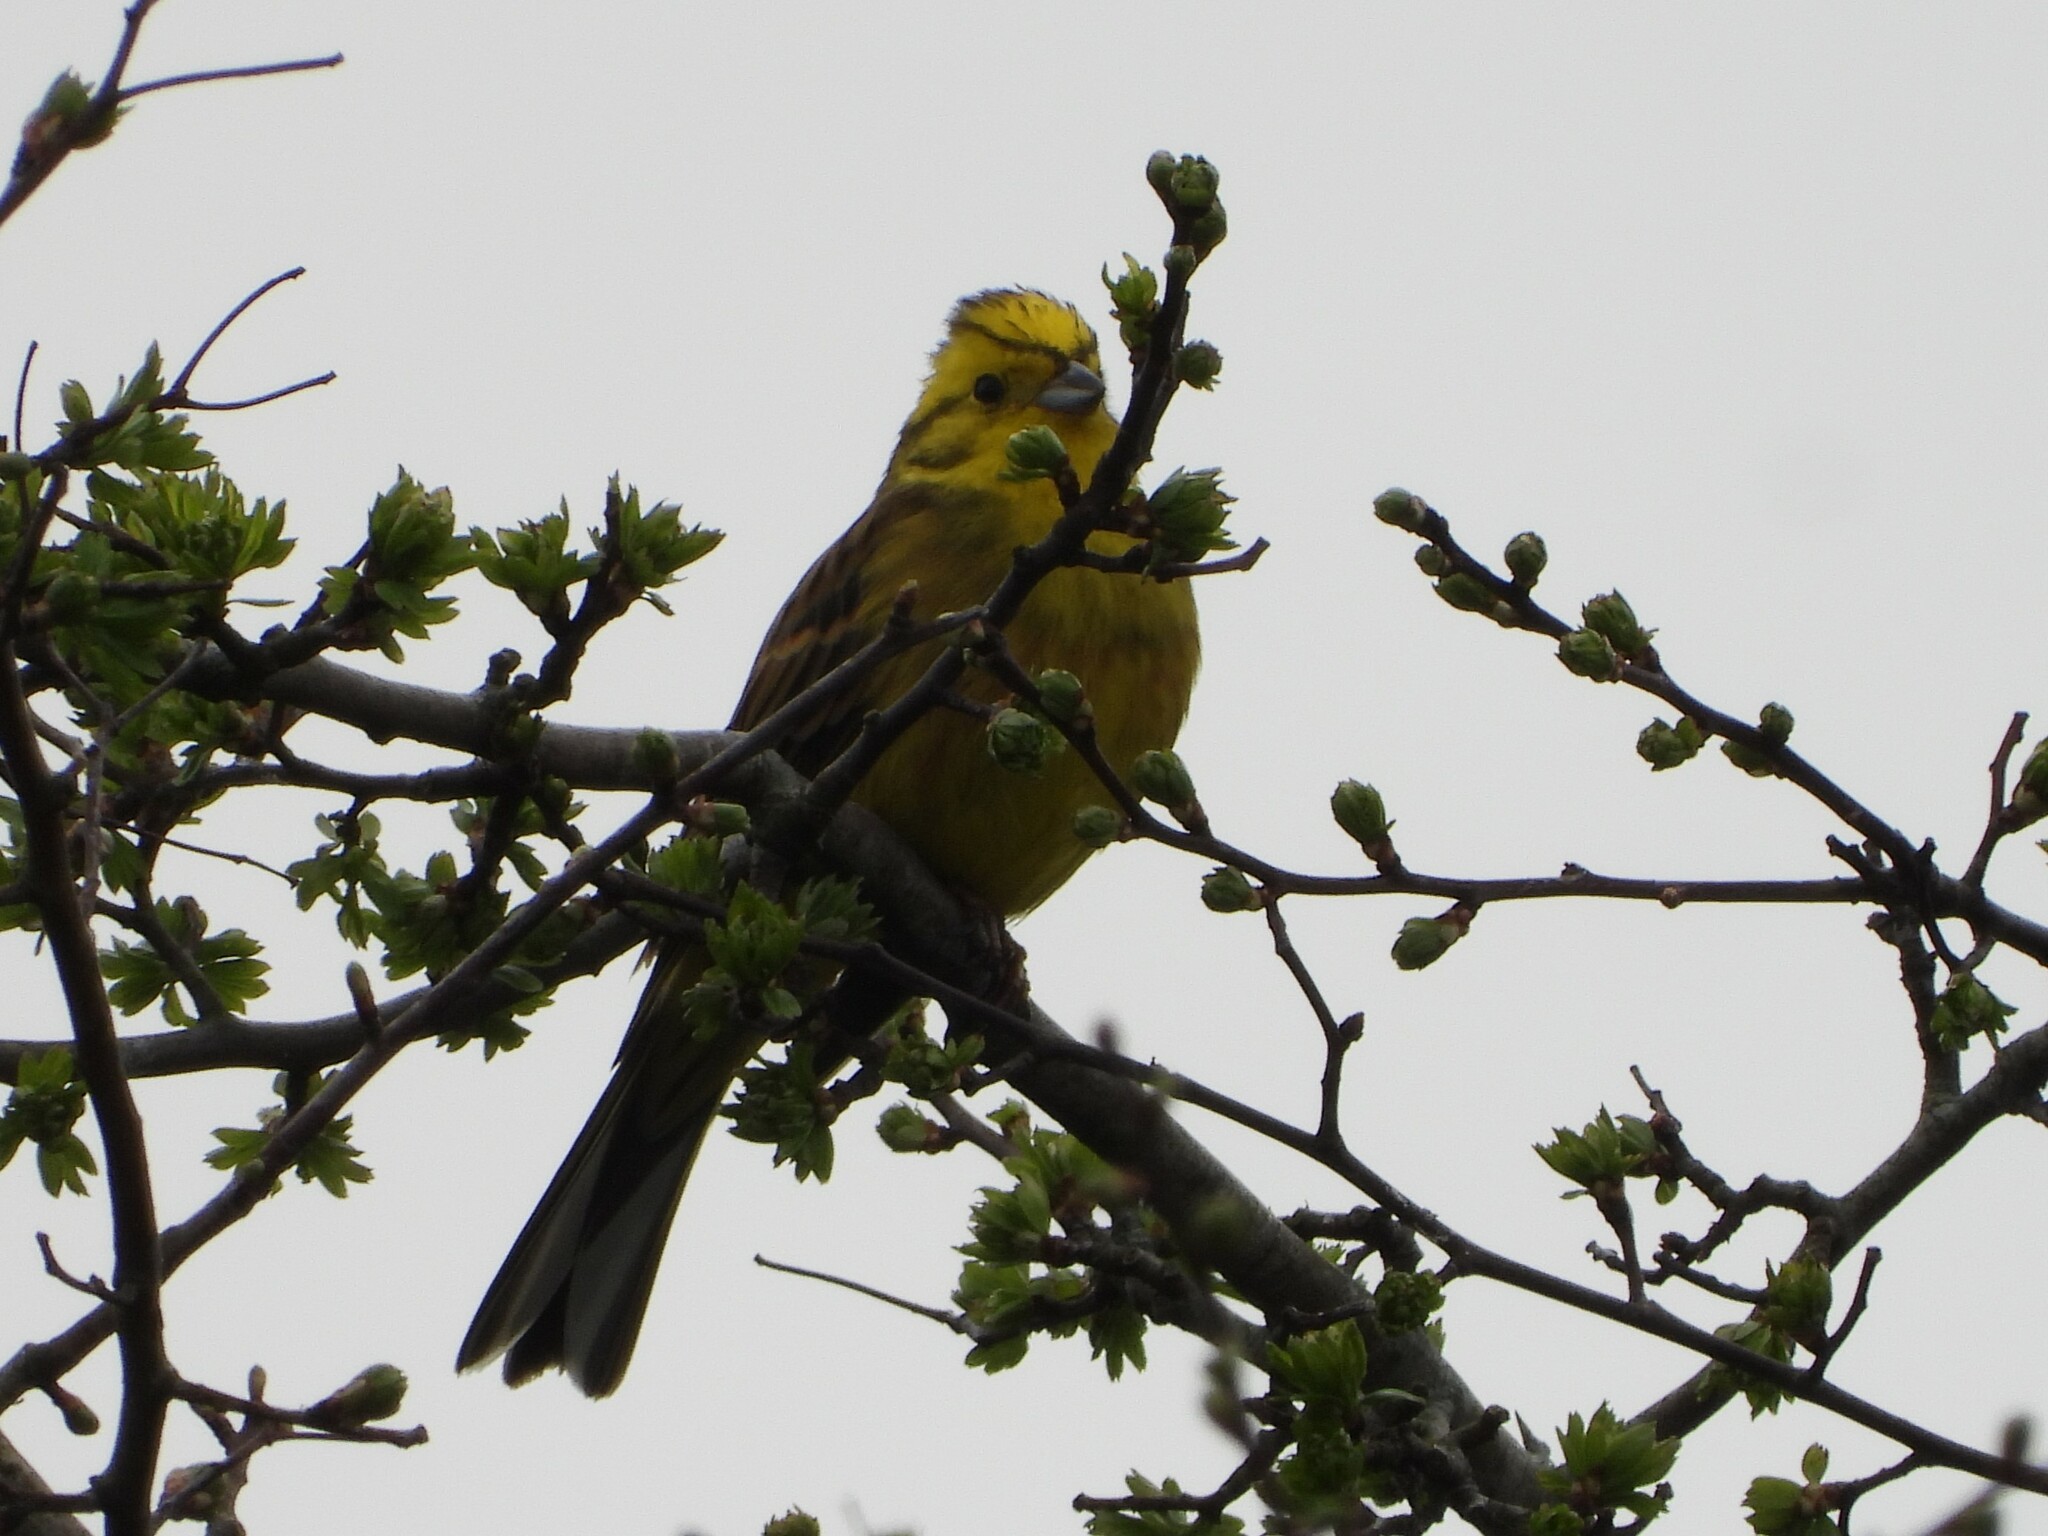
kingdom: Animalia
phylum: Chordata
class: Aves
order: Passeriformes
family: Emberizidae
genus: Emberiza
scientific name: Emberiza citrinella
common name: Yellowhammer
